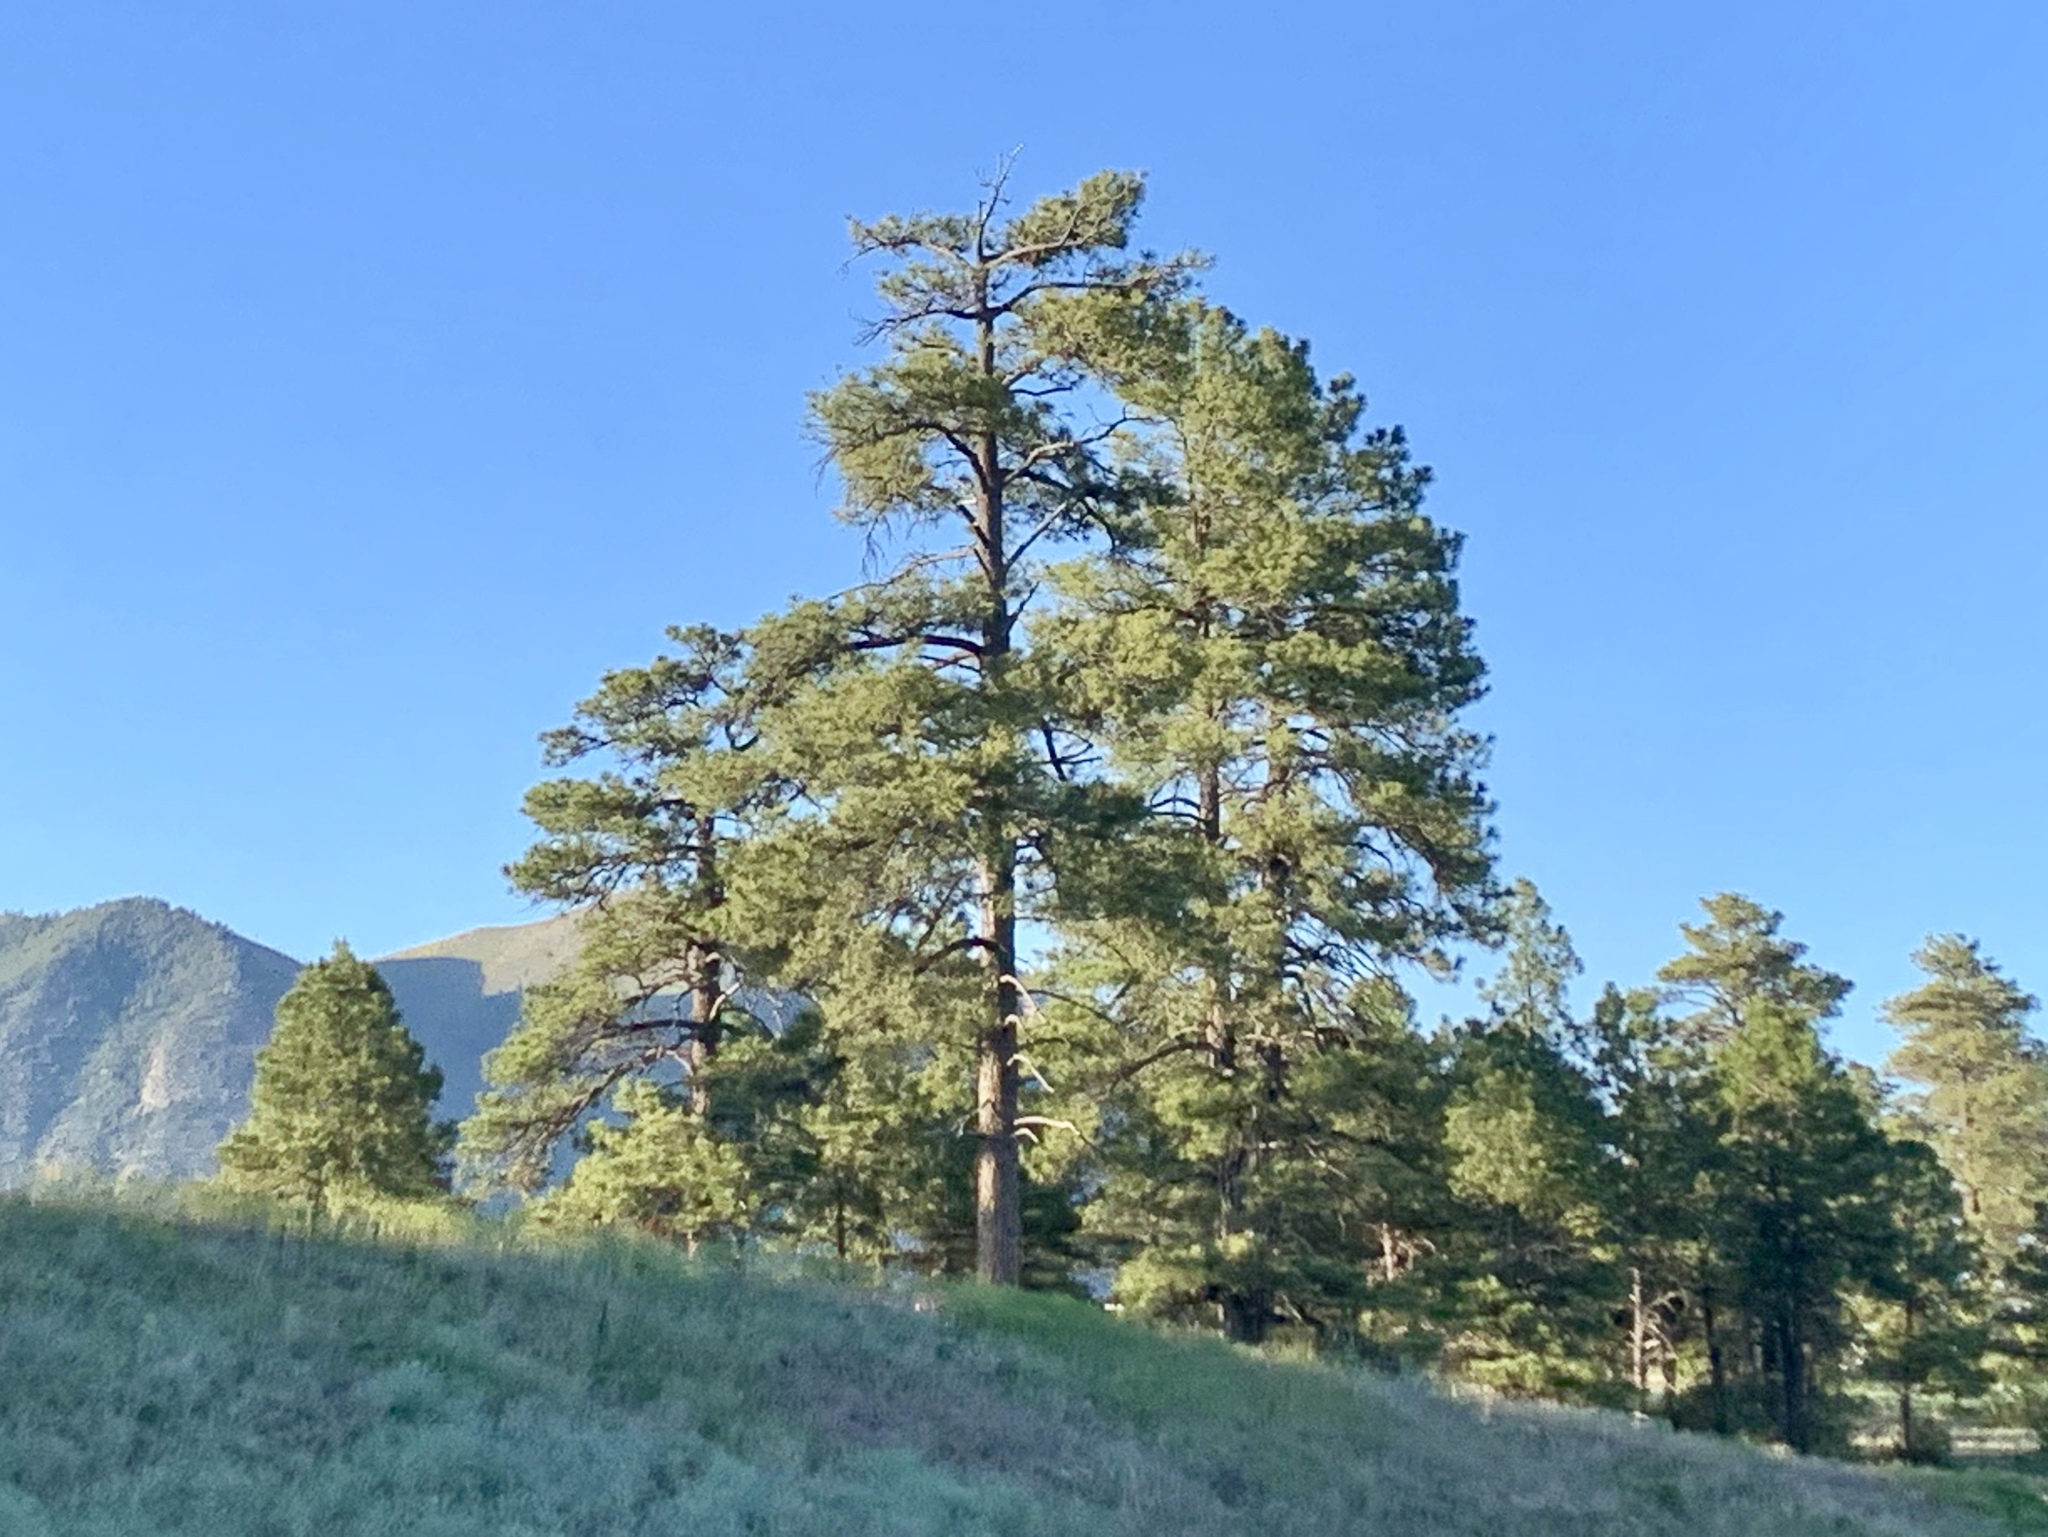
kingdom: Plantae
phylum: Tracheophyta
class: Pinopsida
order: Pinales
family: Pinaceae
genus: Pinus
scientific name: Pinus ponderosa
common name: Western yellow-pine
